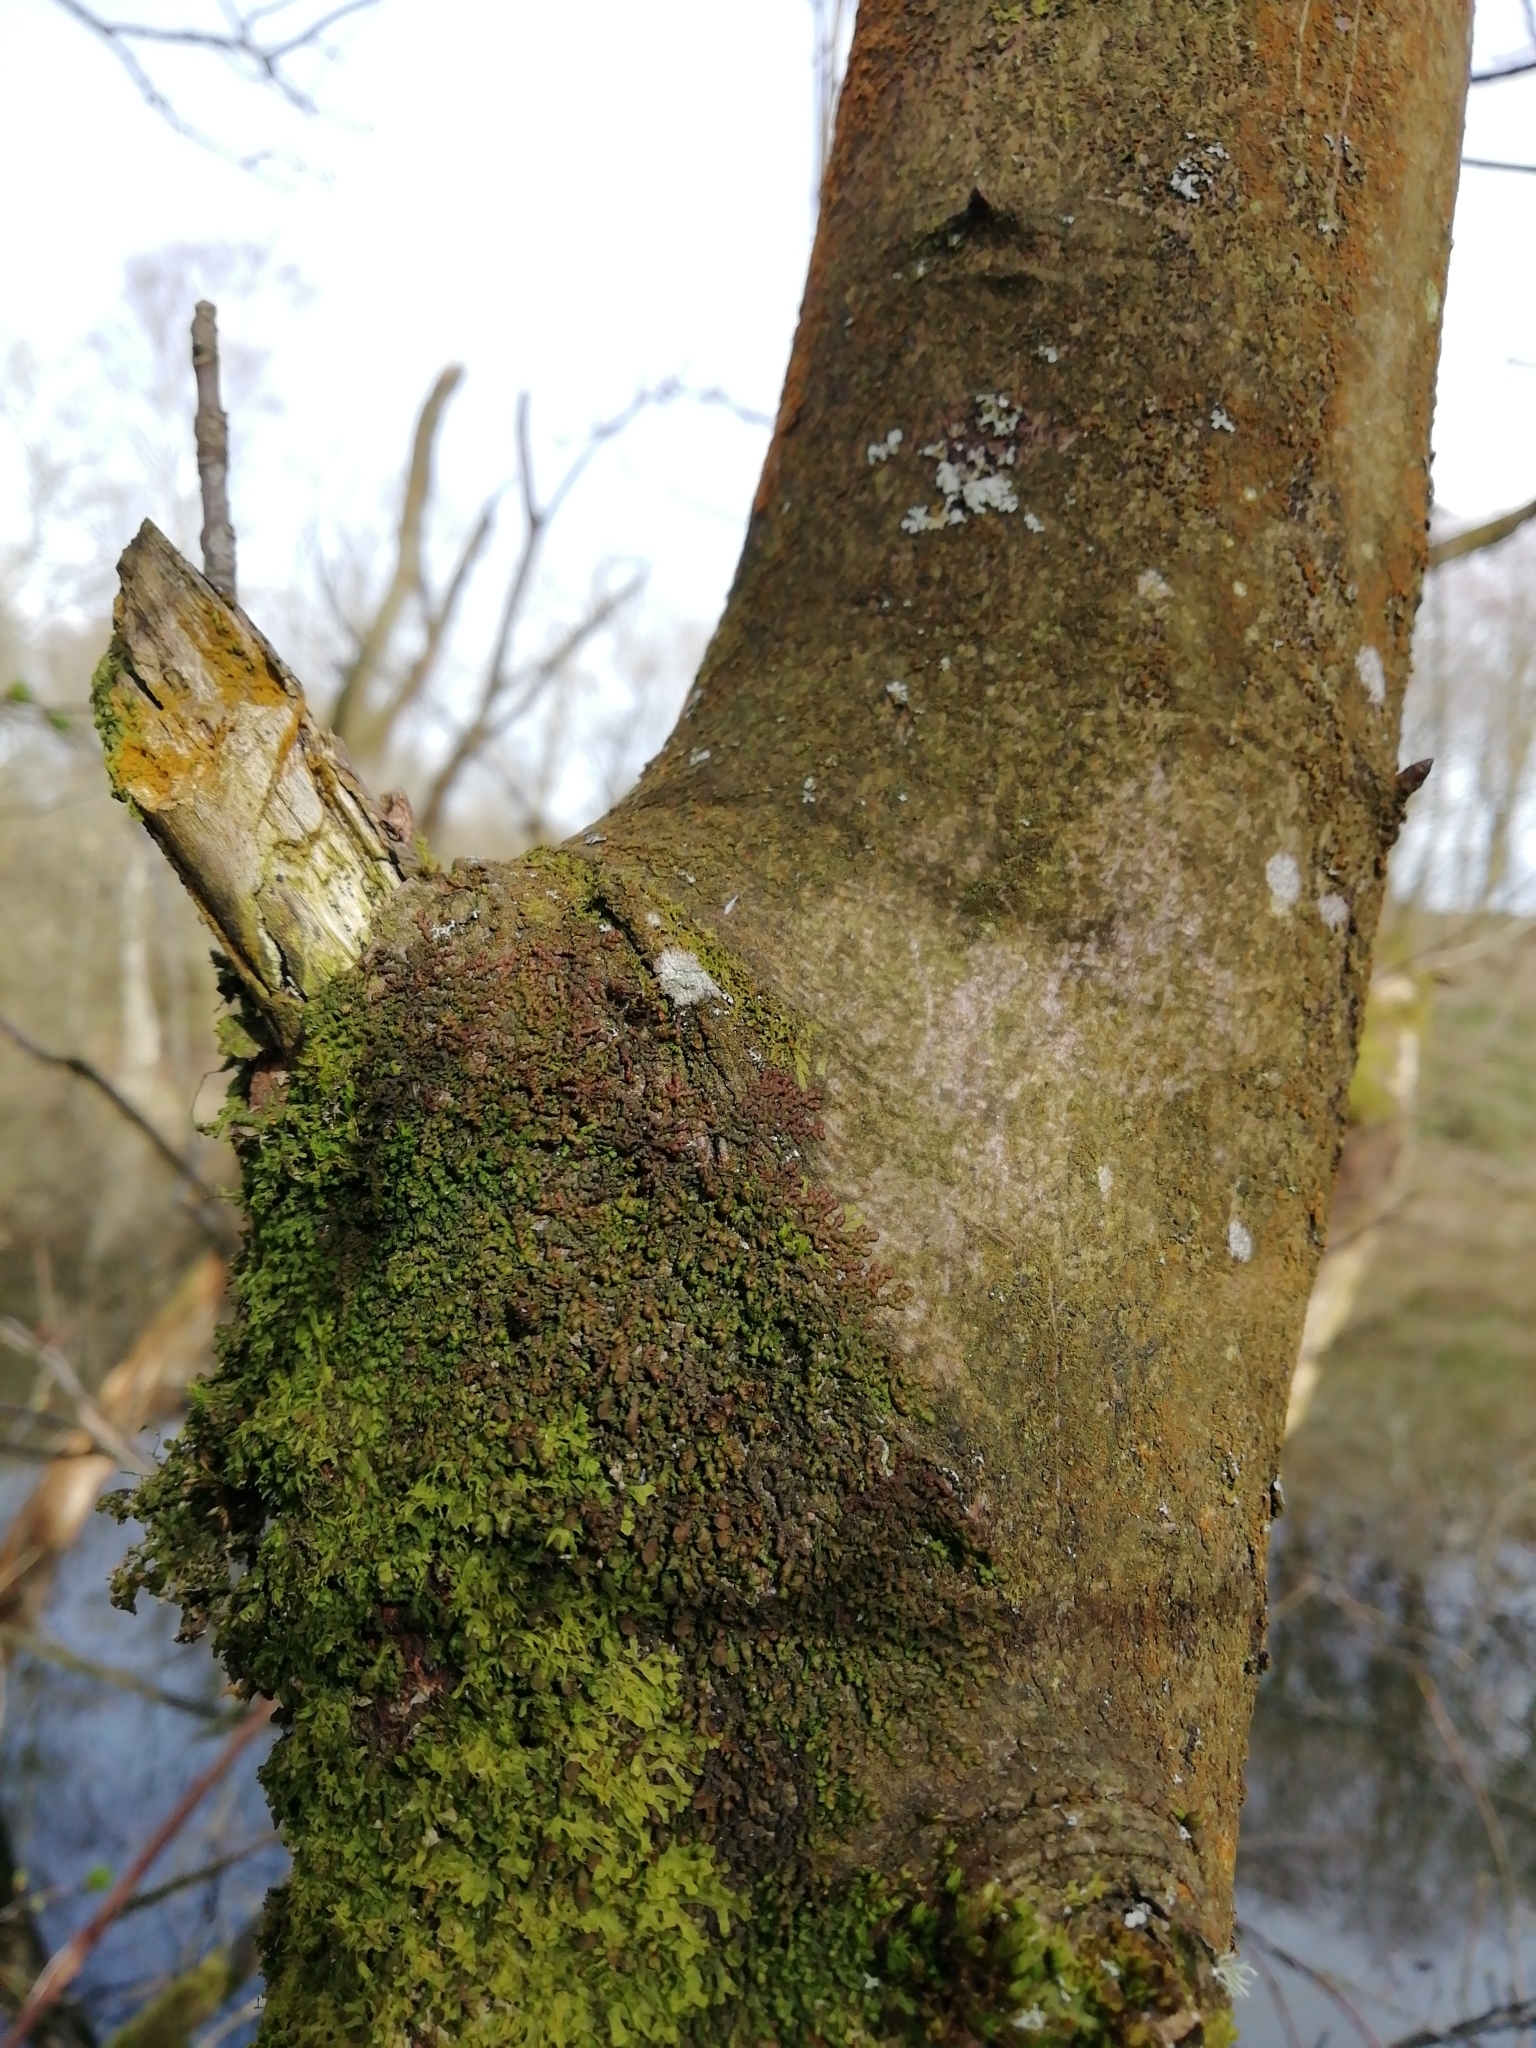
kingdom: Plantae
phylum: Marchantiophyta
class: Jungermanniopsida
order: Porellales
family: Frullaniaceae
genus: Frullania
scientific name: Frullania dilatata
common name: Dilated scalewort
